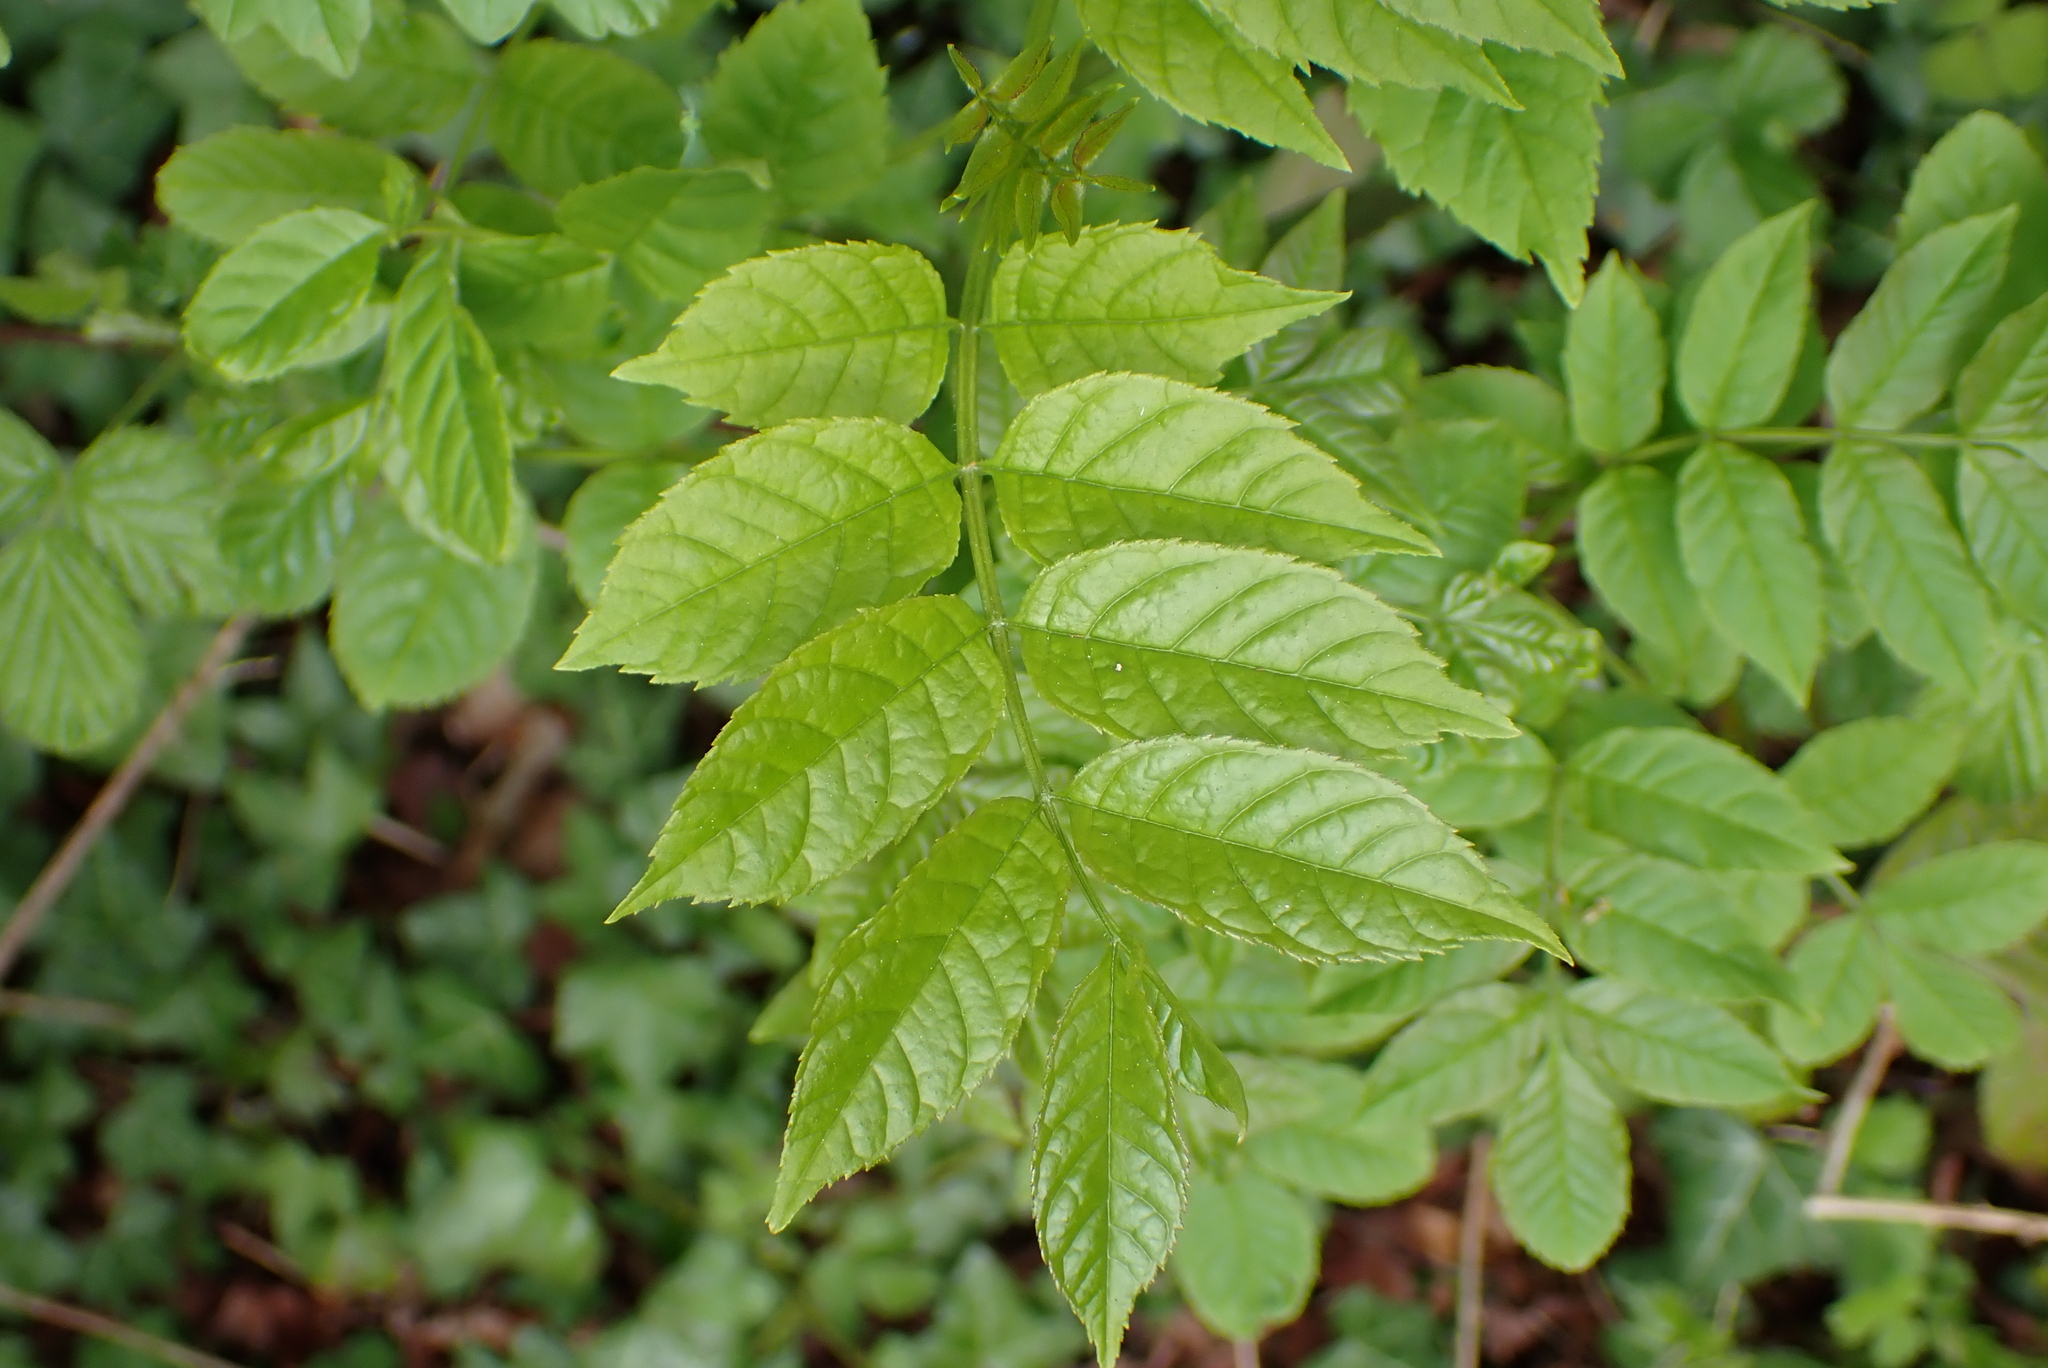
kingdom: Plantae
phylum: Tracheophyta
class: Magnoliopsida
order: Lamiales
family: Oleaceae
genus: Fraxinus
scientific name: Fraxinus excelsior
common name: European ash
